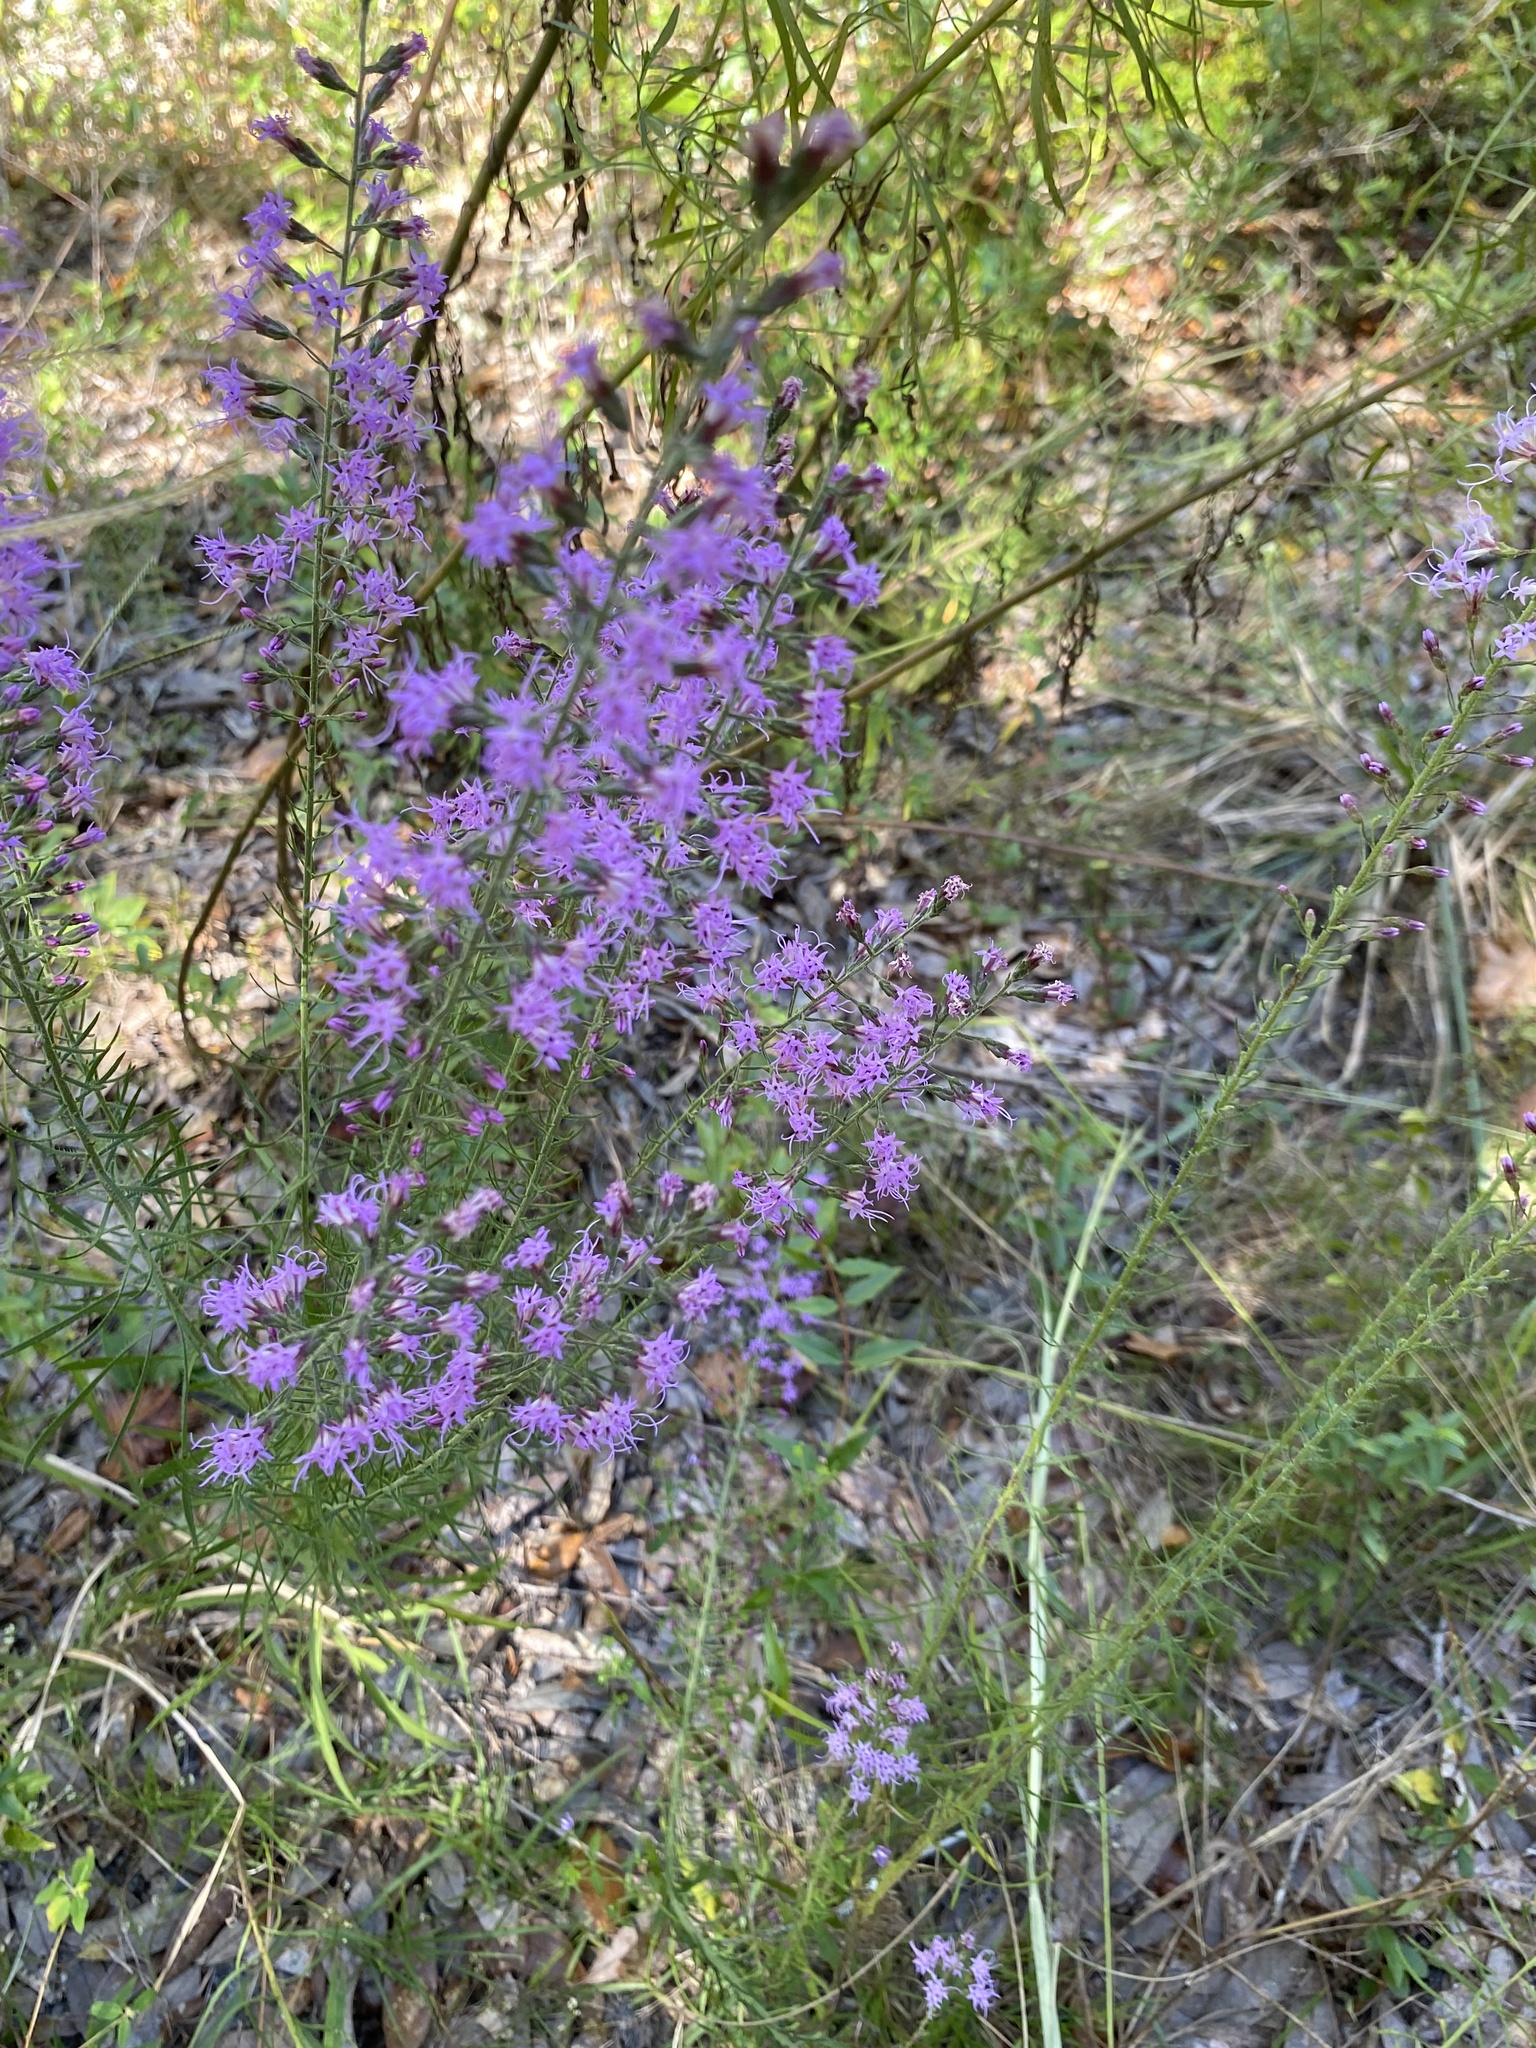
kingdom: Plantae
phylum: Tracheophyta
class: Magnoliopsida
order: Asterales
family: Asteraceae
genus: Liatris
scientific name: Liatris gracilis
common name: Slender gayfeather
